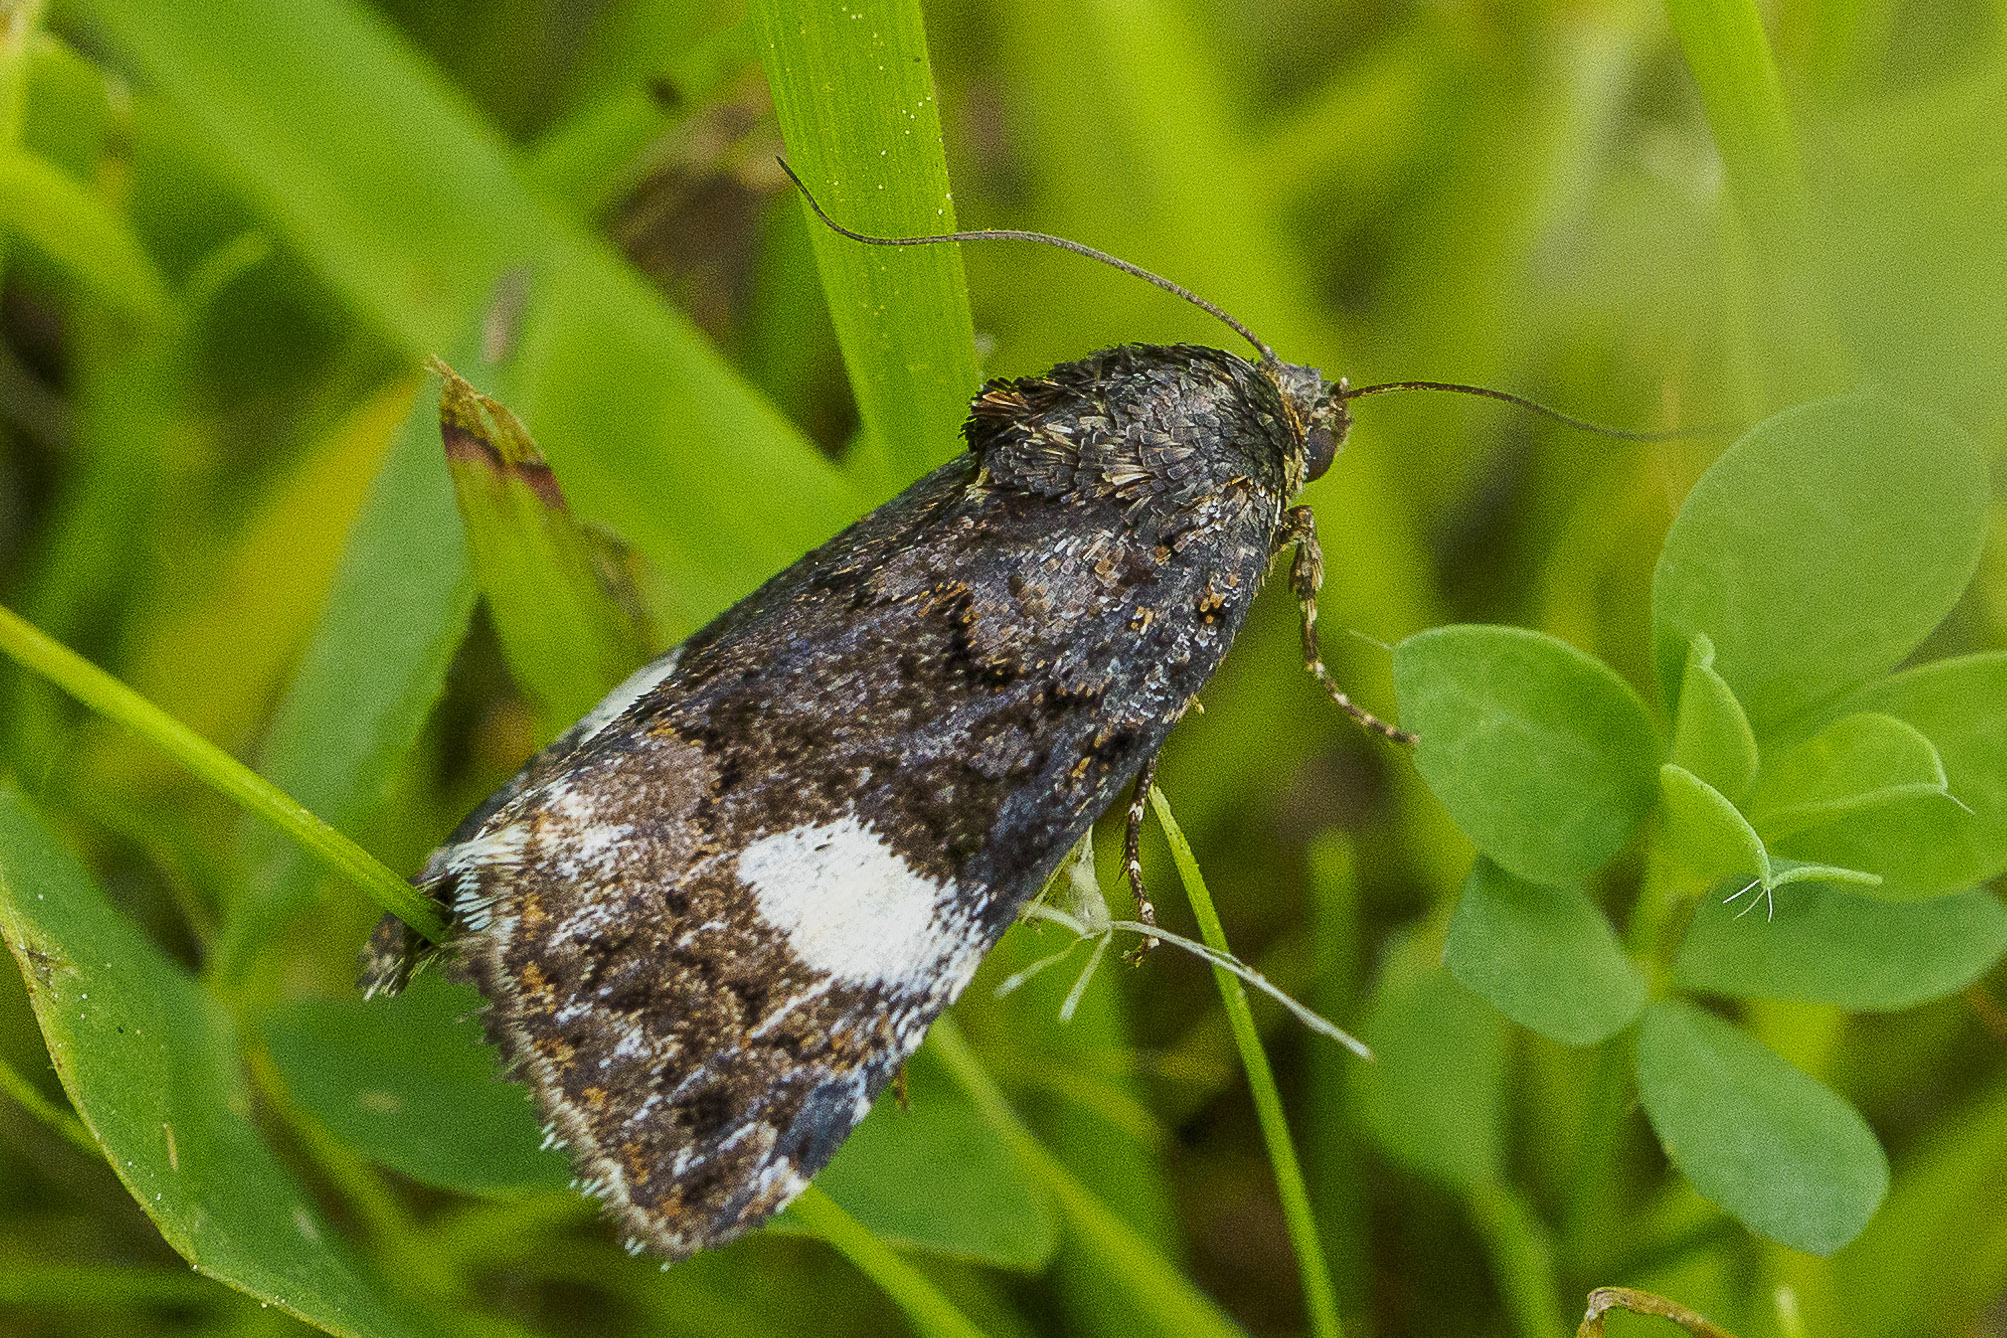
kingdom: Animalia
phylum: Arthropoda
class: Insecta
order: Lepidoptera
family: Erebidae
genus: Tyta
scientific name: Tyta luctuosa
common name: Four-spotted
